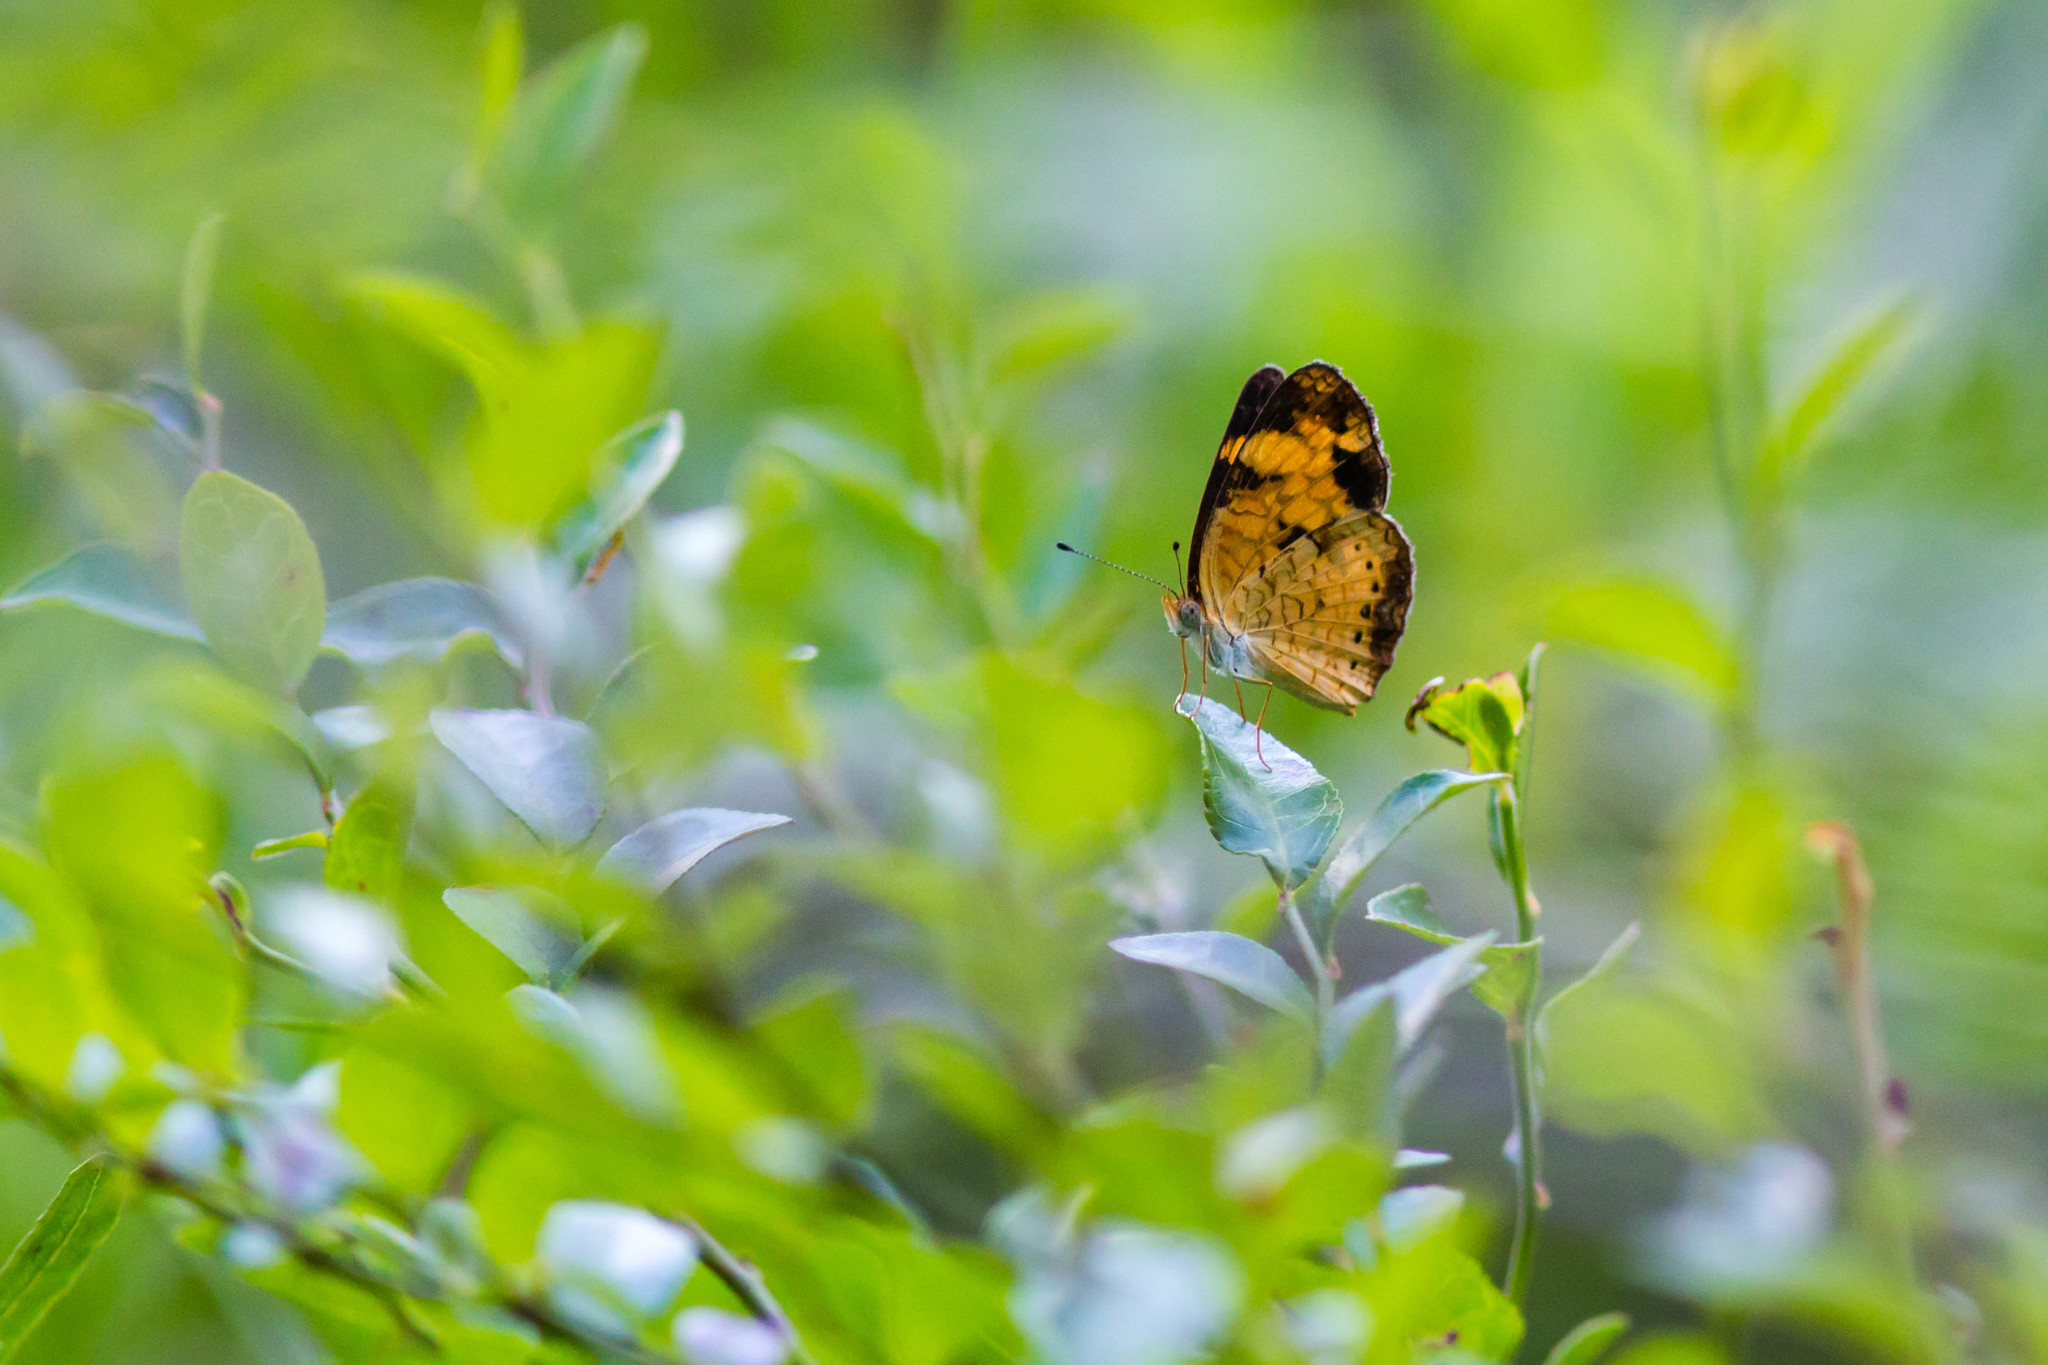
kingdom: Animalia
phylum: Arthropoda
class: Insecta
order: Lepidoptera
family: Nymphalidae
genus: Phyciodes
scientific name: Phyciodes tharos
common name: Pearl crescent
